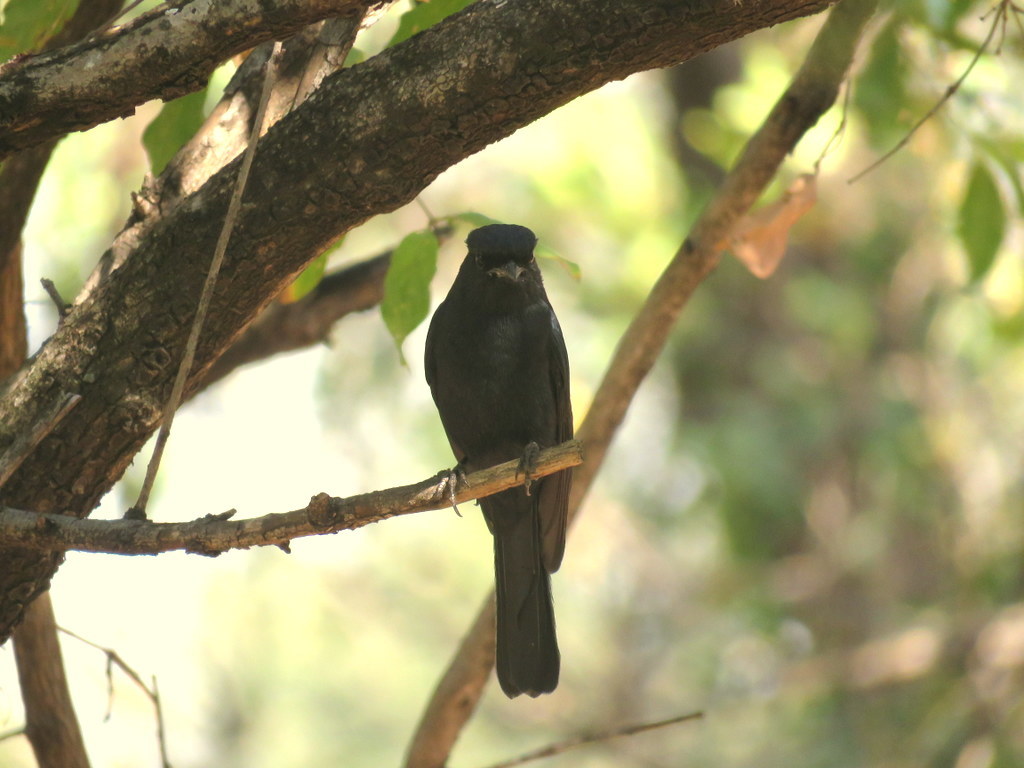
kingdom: Animalia
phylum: Chordata
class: Aves
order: Passeriformes
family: Muscicapidae
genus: Melaenornis
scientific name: Melaenornis pammelaina
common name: Southern black flycatcher
